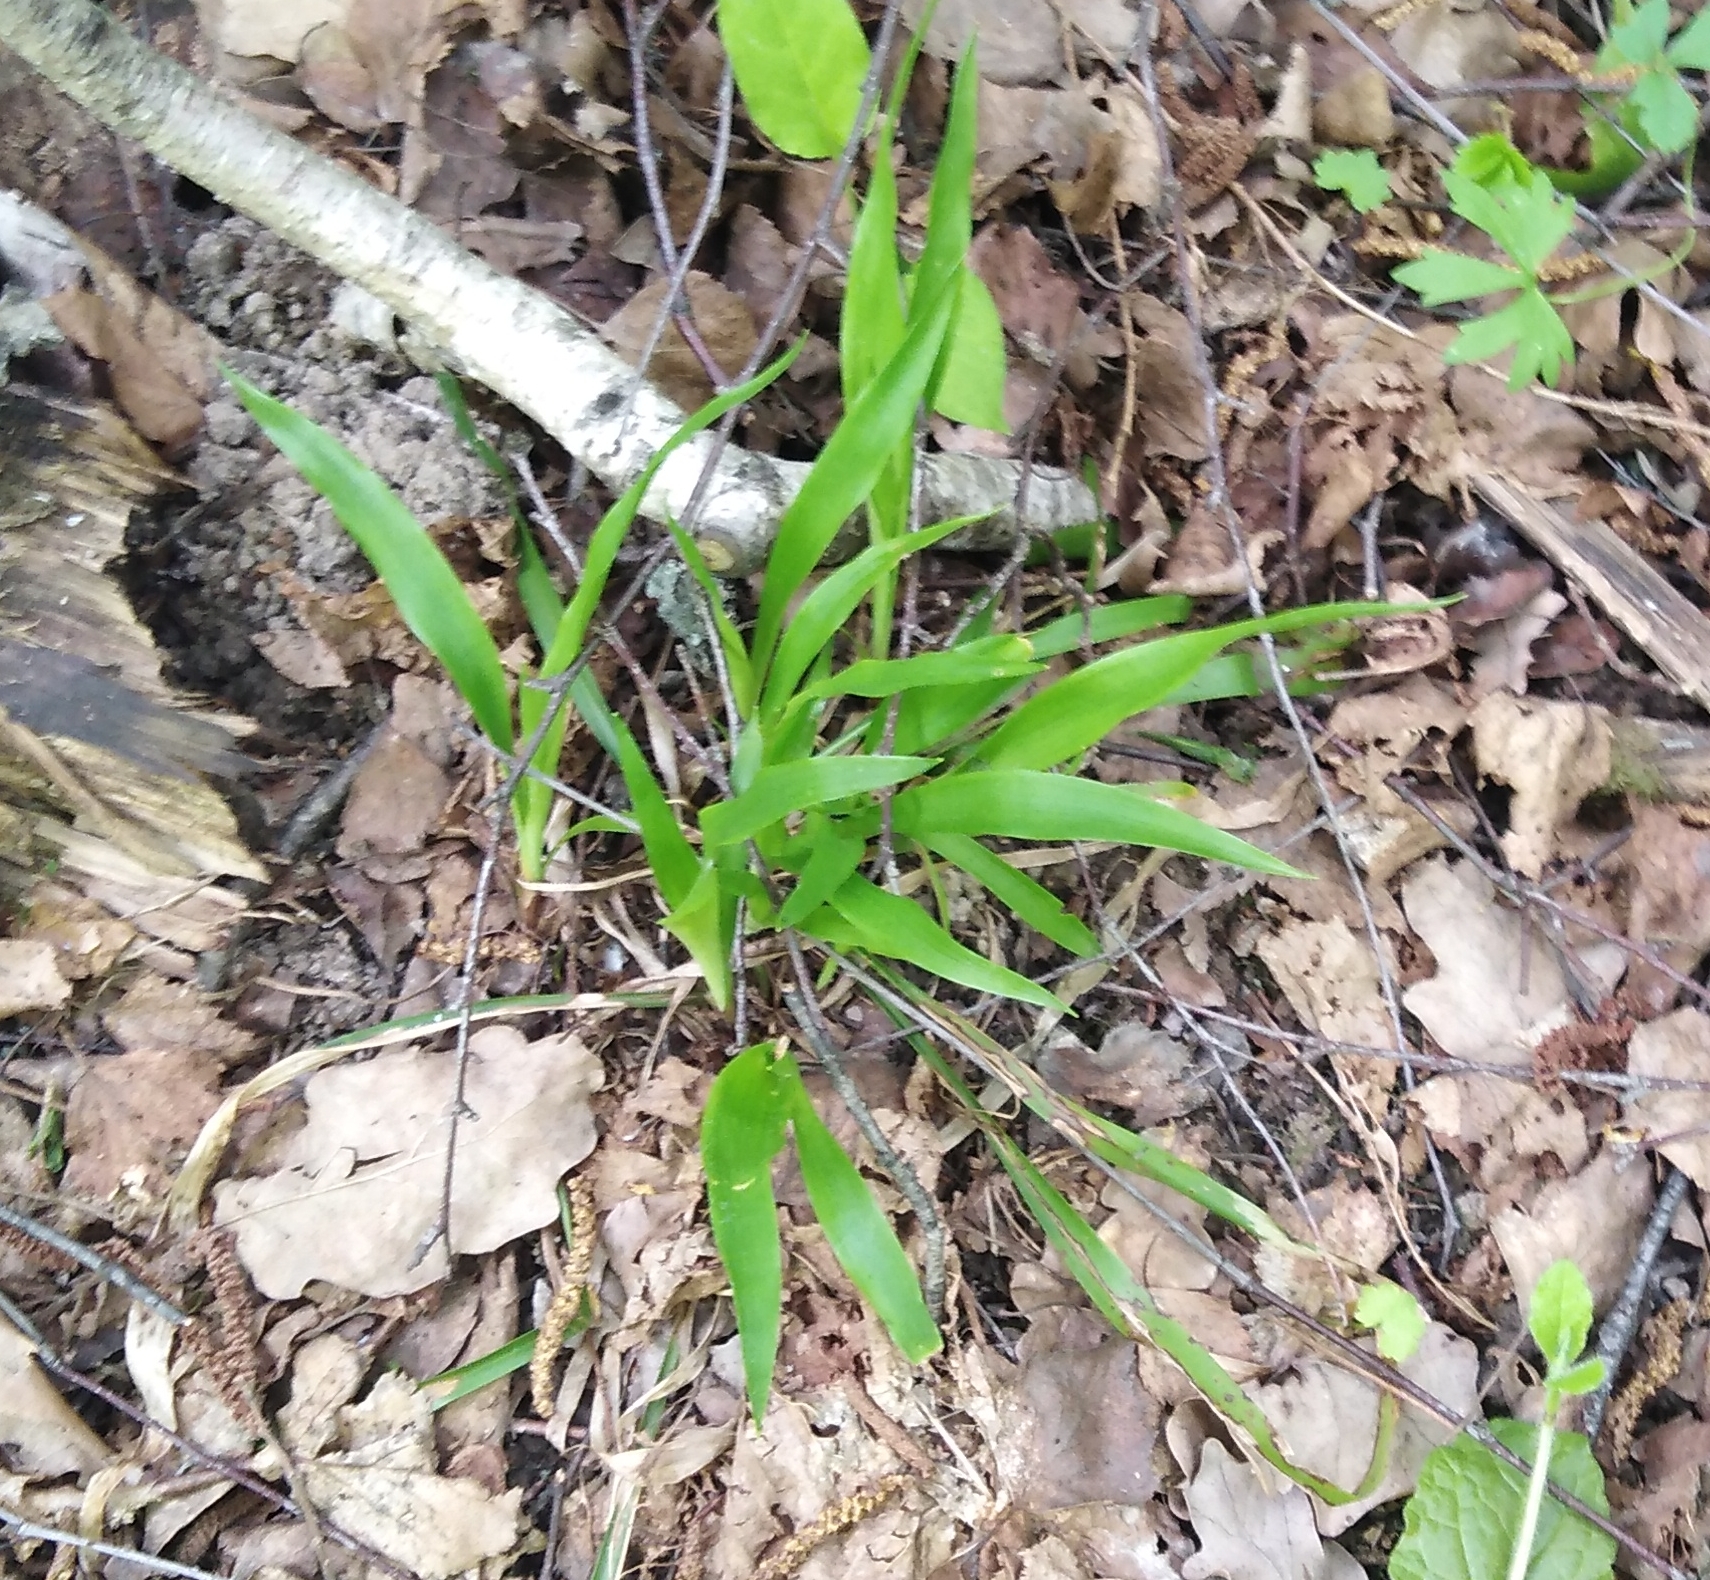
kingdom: Plantae
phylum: Tracheophyta
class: Liliopsida
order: Poales
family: Juncaceae
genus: Luzula
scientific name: Luzula pilosa
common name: Hairy wood-rush
